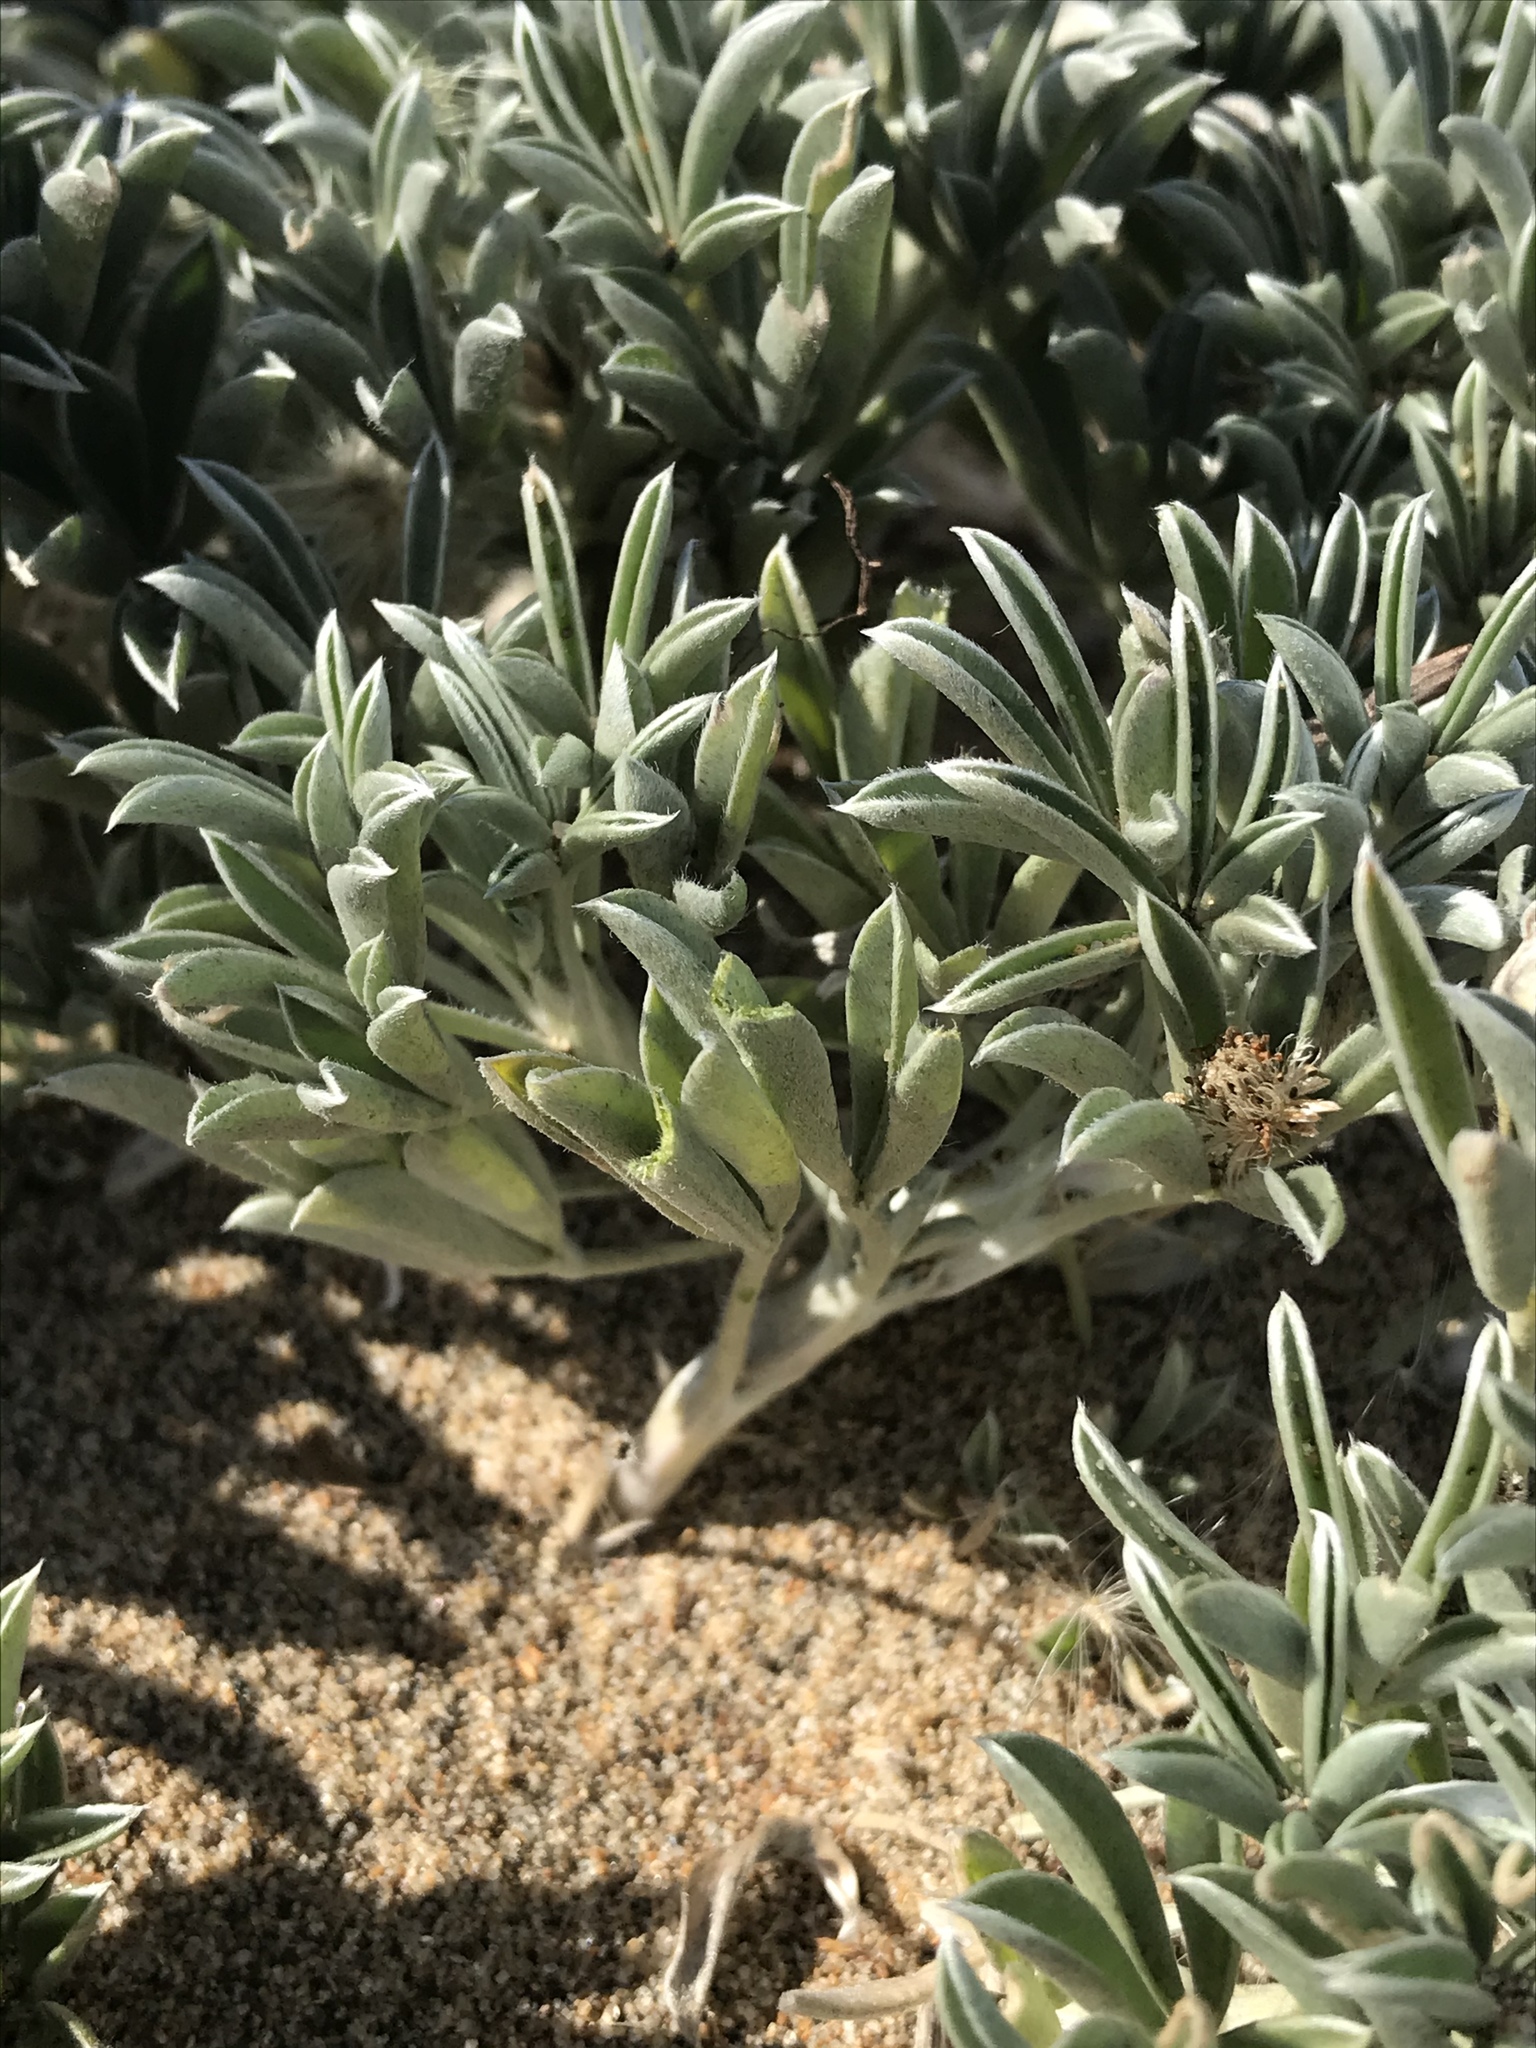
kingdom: Plantae
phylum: Tracheophyta
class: Magnoliopsida
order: Fabales
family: Fabaceae
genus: Lupinus
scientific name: Lupinus tidestromii
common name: Clover lupine
